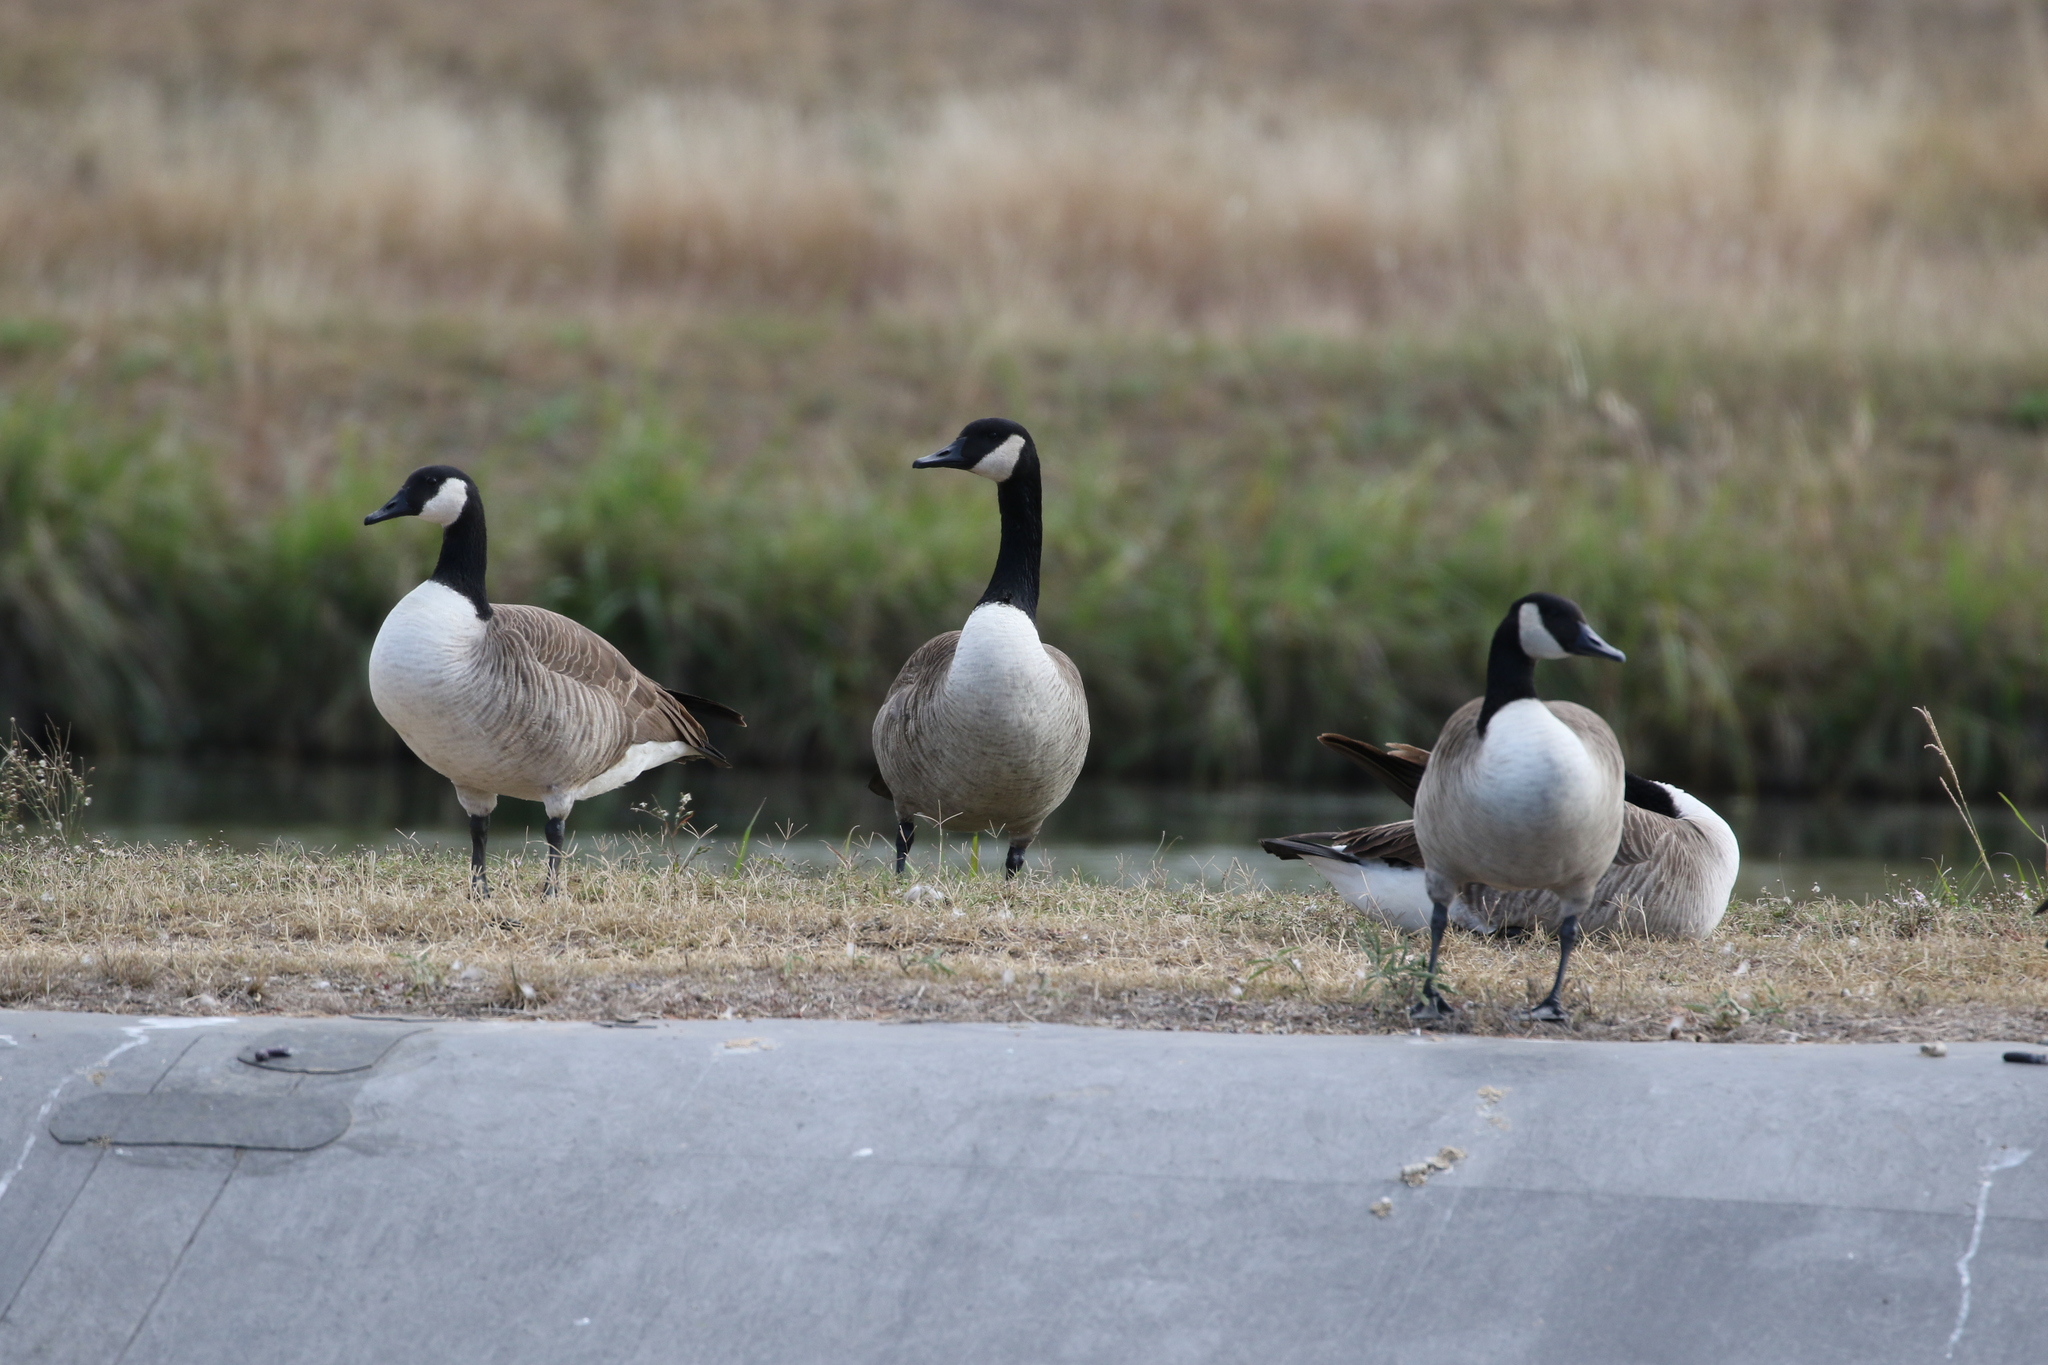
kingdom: Animalia
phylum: Chordata
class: Aves
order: Anseriformes
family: Anatidae
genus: Branta
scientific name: Branta canadensis
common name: Canada goose
